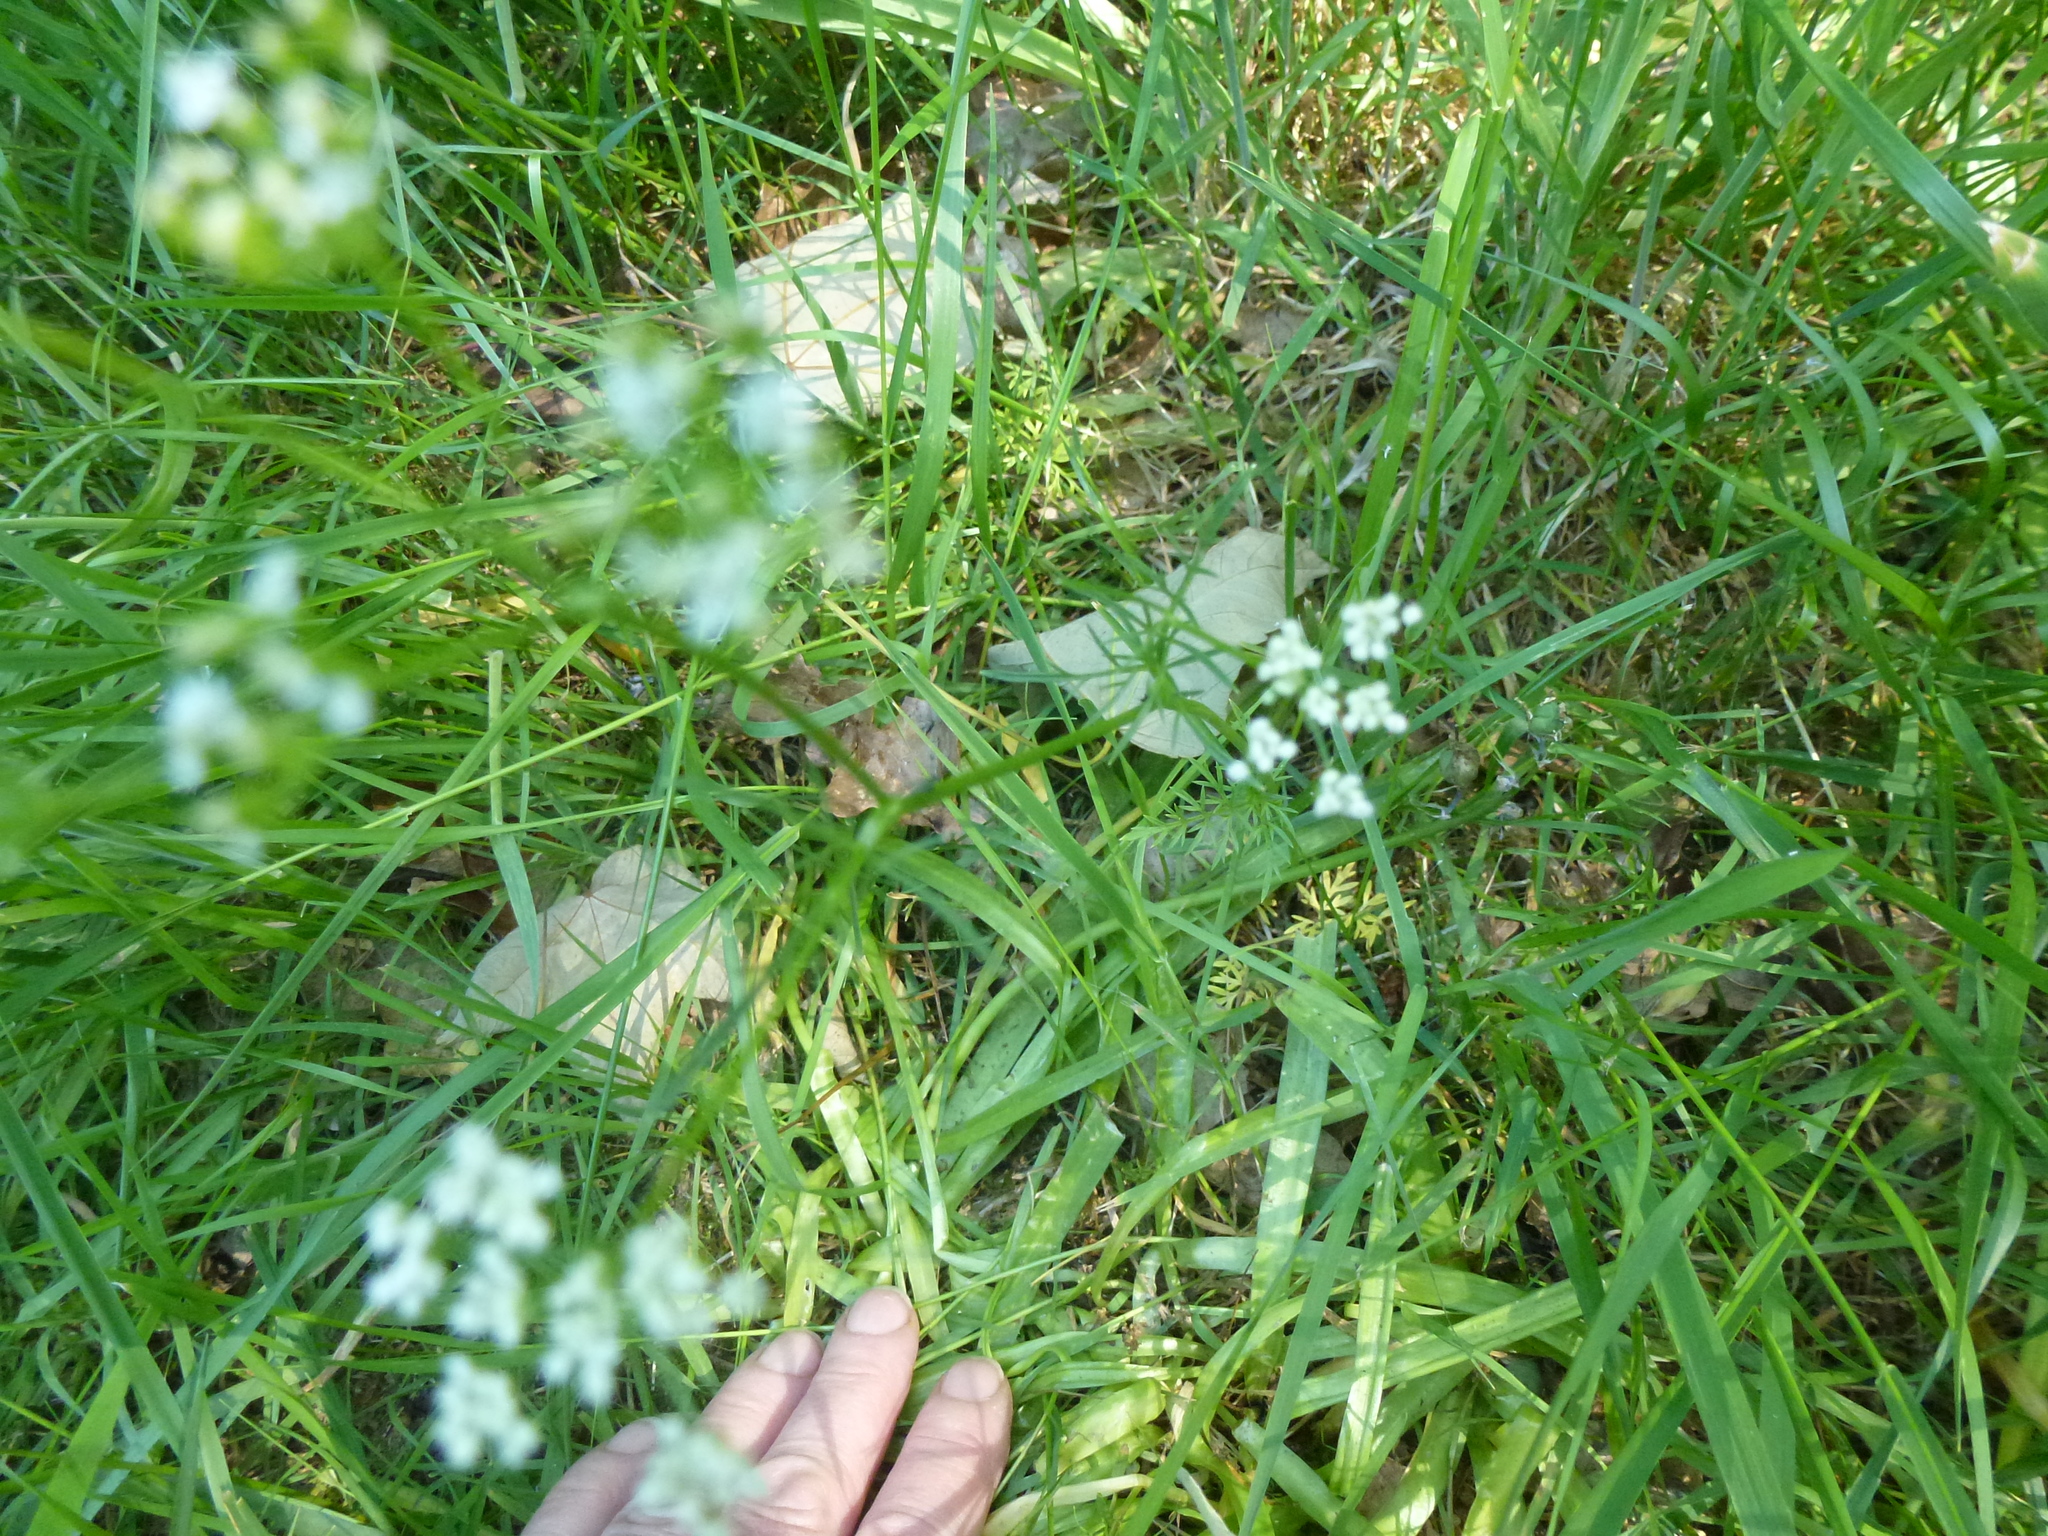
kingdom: Plantae
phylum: Tracheophyta
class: Magnoliopsida
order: Apiales
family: Apiaceae
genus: Conopodium
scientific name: Conopodium majus
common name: Pignut
